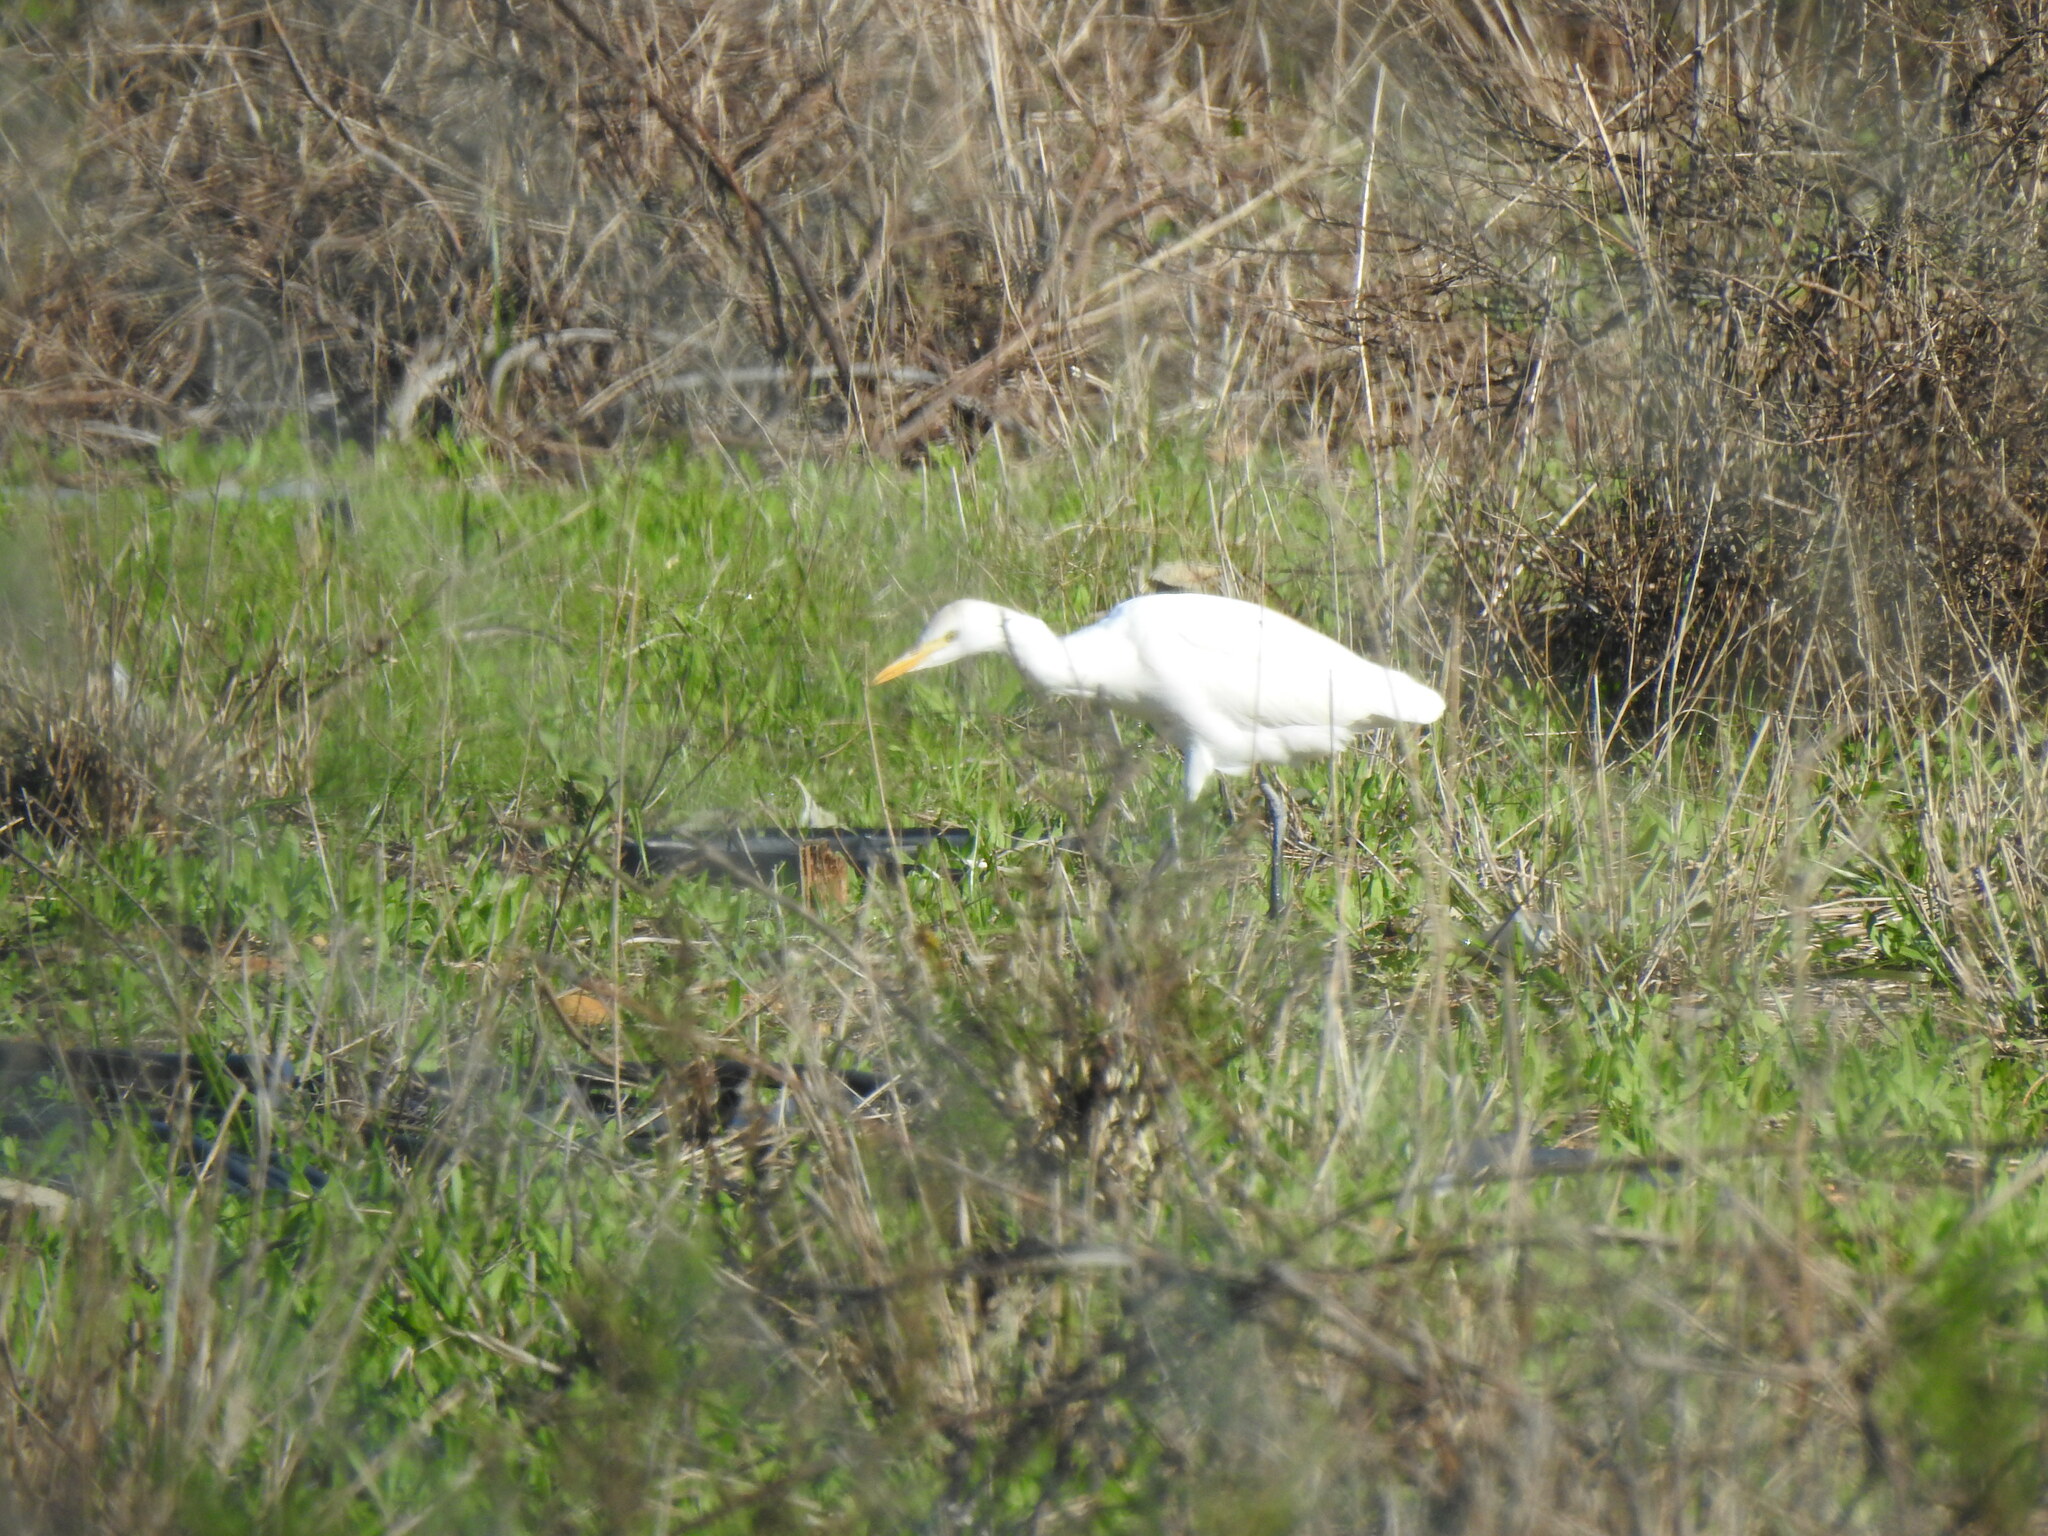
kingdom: Animalia
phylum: Chordata
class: Aves
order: Pelecaniformes
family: Ardeidae
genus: Bubulcus
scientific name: Bubulcus ibis
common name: Cattle egret
